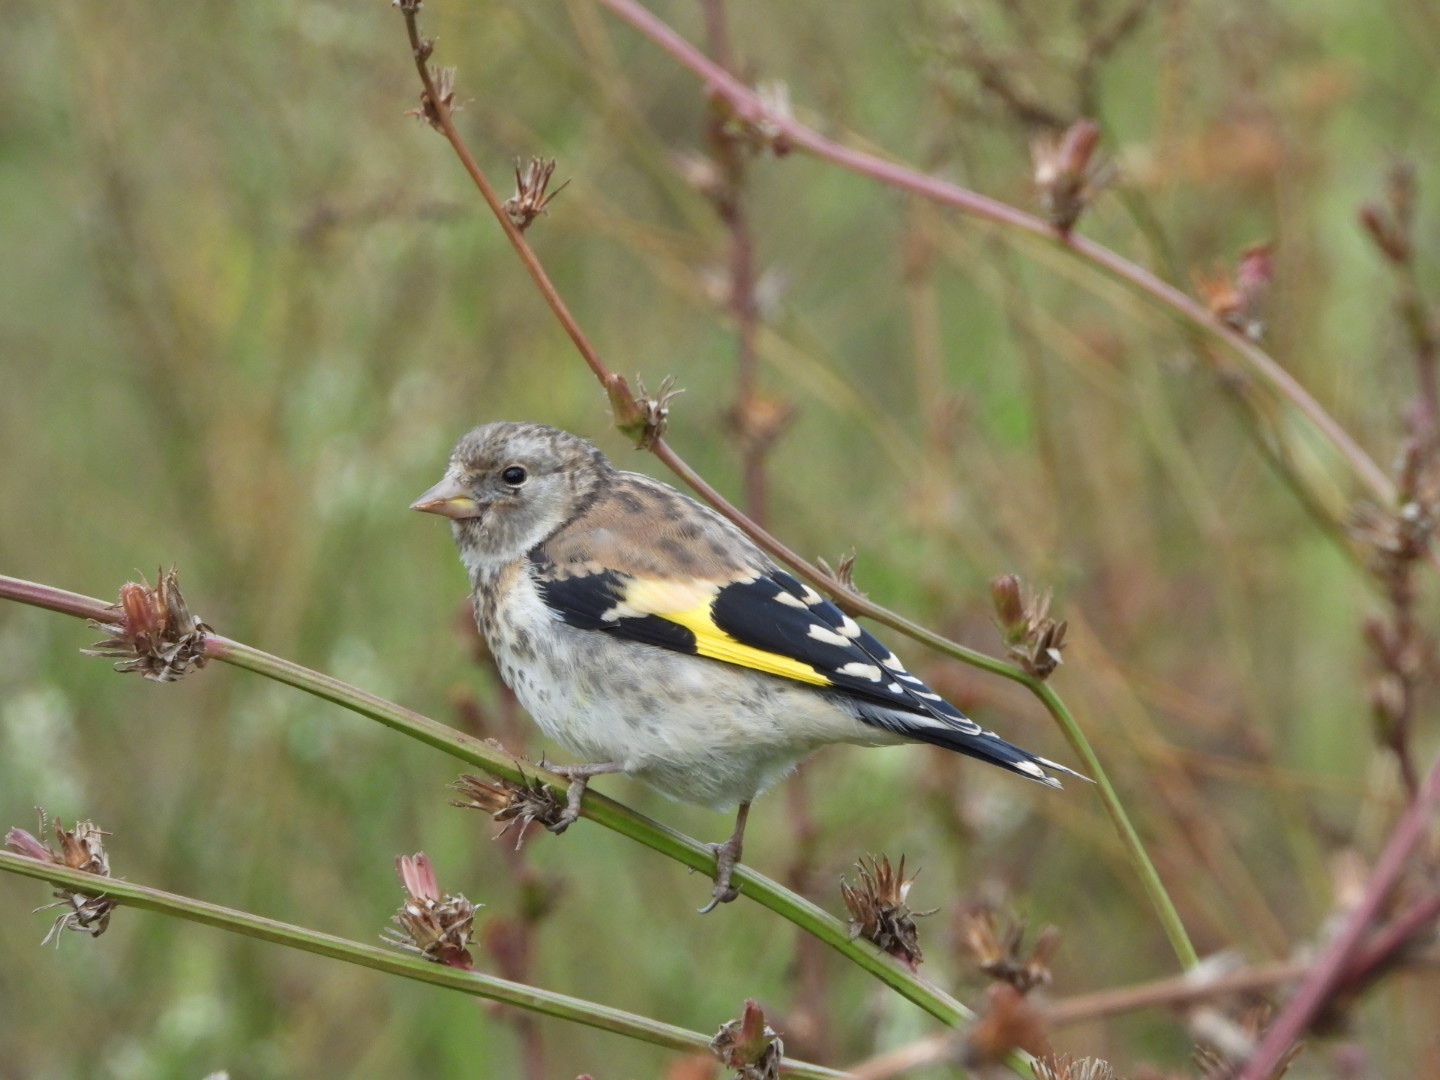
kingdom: Animalia
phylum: Chordata
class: Aves
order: Passeriformes
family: Fringillidae
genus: Carduelis
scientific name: Carduelis carduelis
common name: European goldfinch
